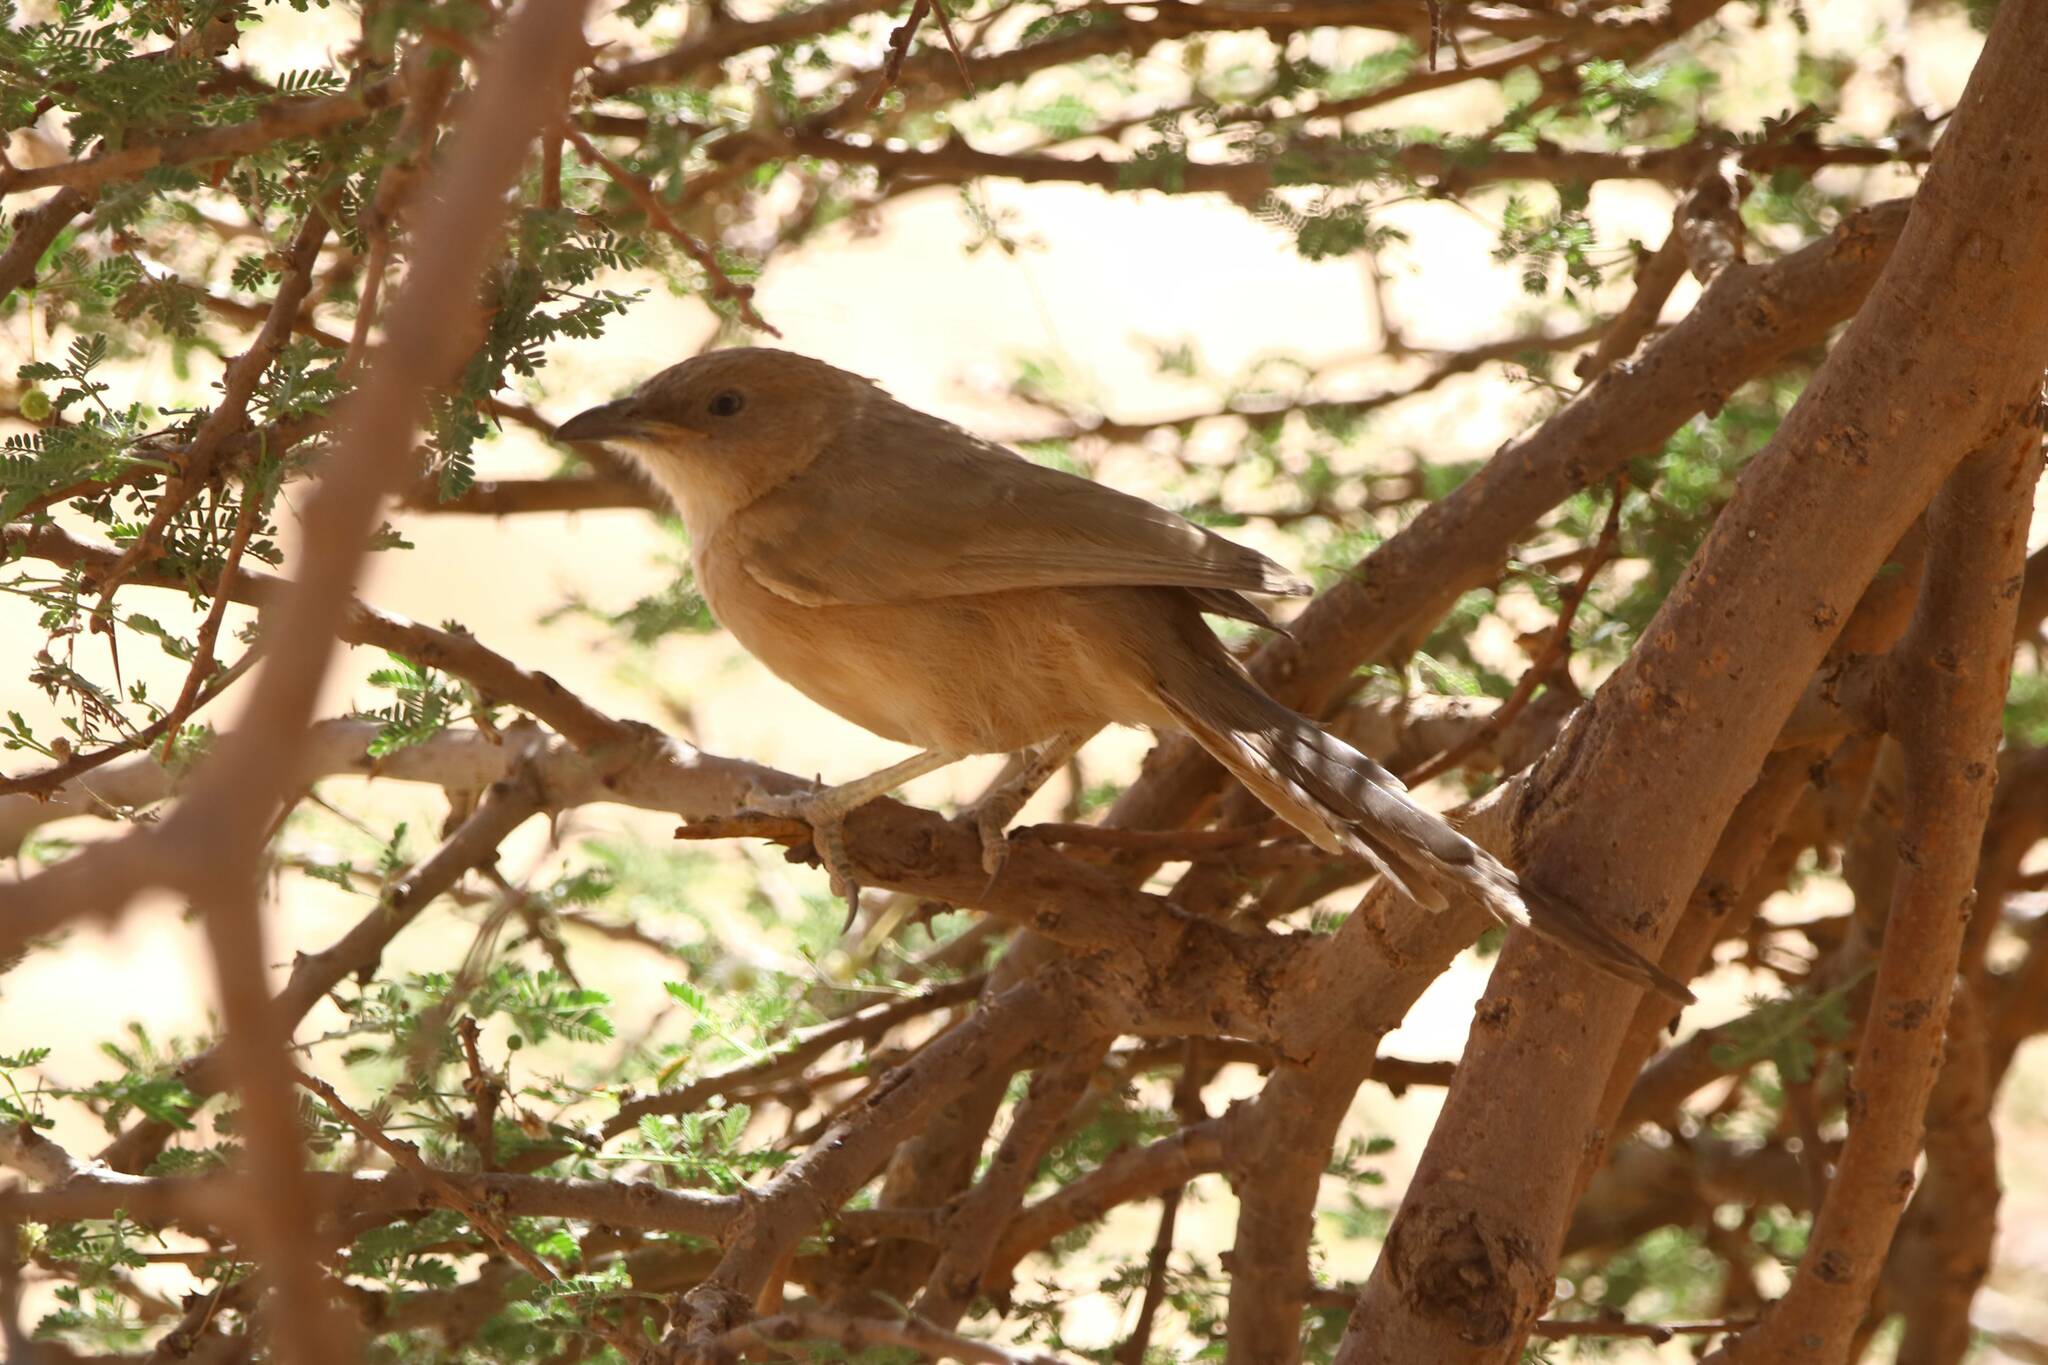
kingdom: Animalia
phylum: Chordata
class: Aves
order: Passeriformes
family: Leiothrichidae
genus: Turdoides
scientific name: Turdoides fulva
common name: Fulvous babbler
